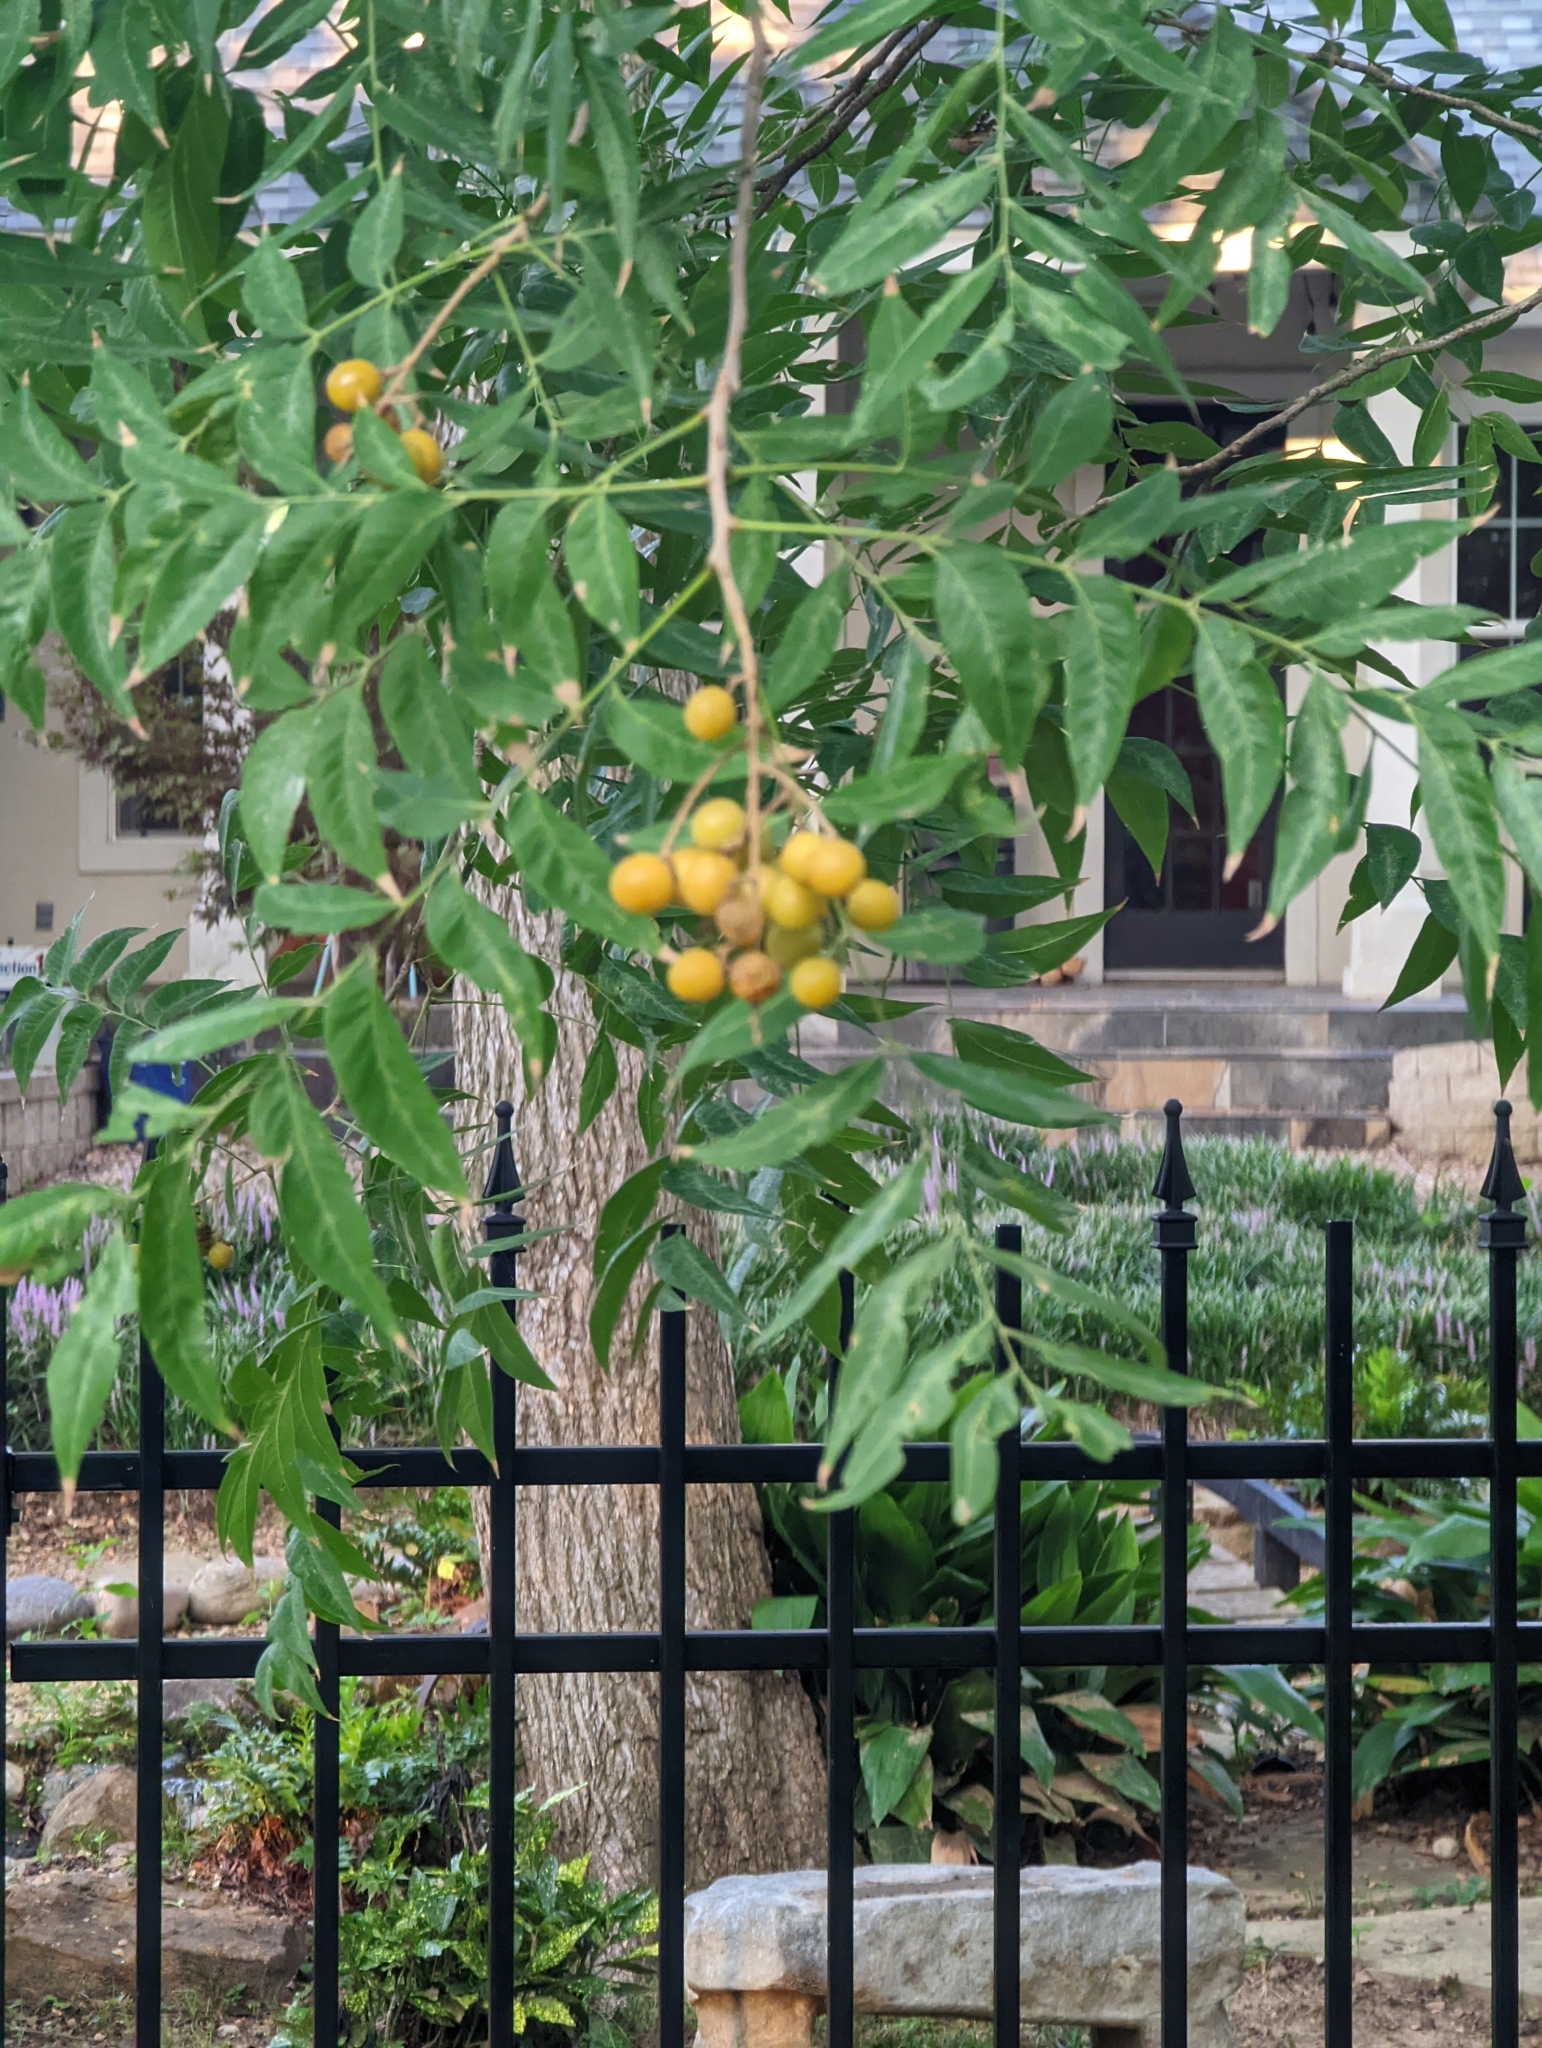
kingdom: Plantae
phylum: Tracheophyta
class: Magnoliopsida
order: Sapindales
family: Sapindaceae
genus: Sapindus
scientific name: Sapindus drummondii
